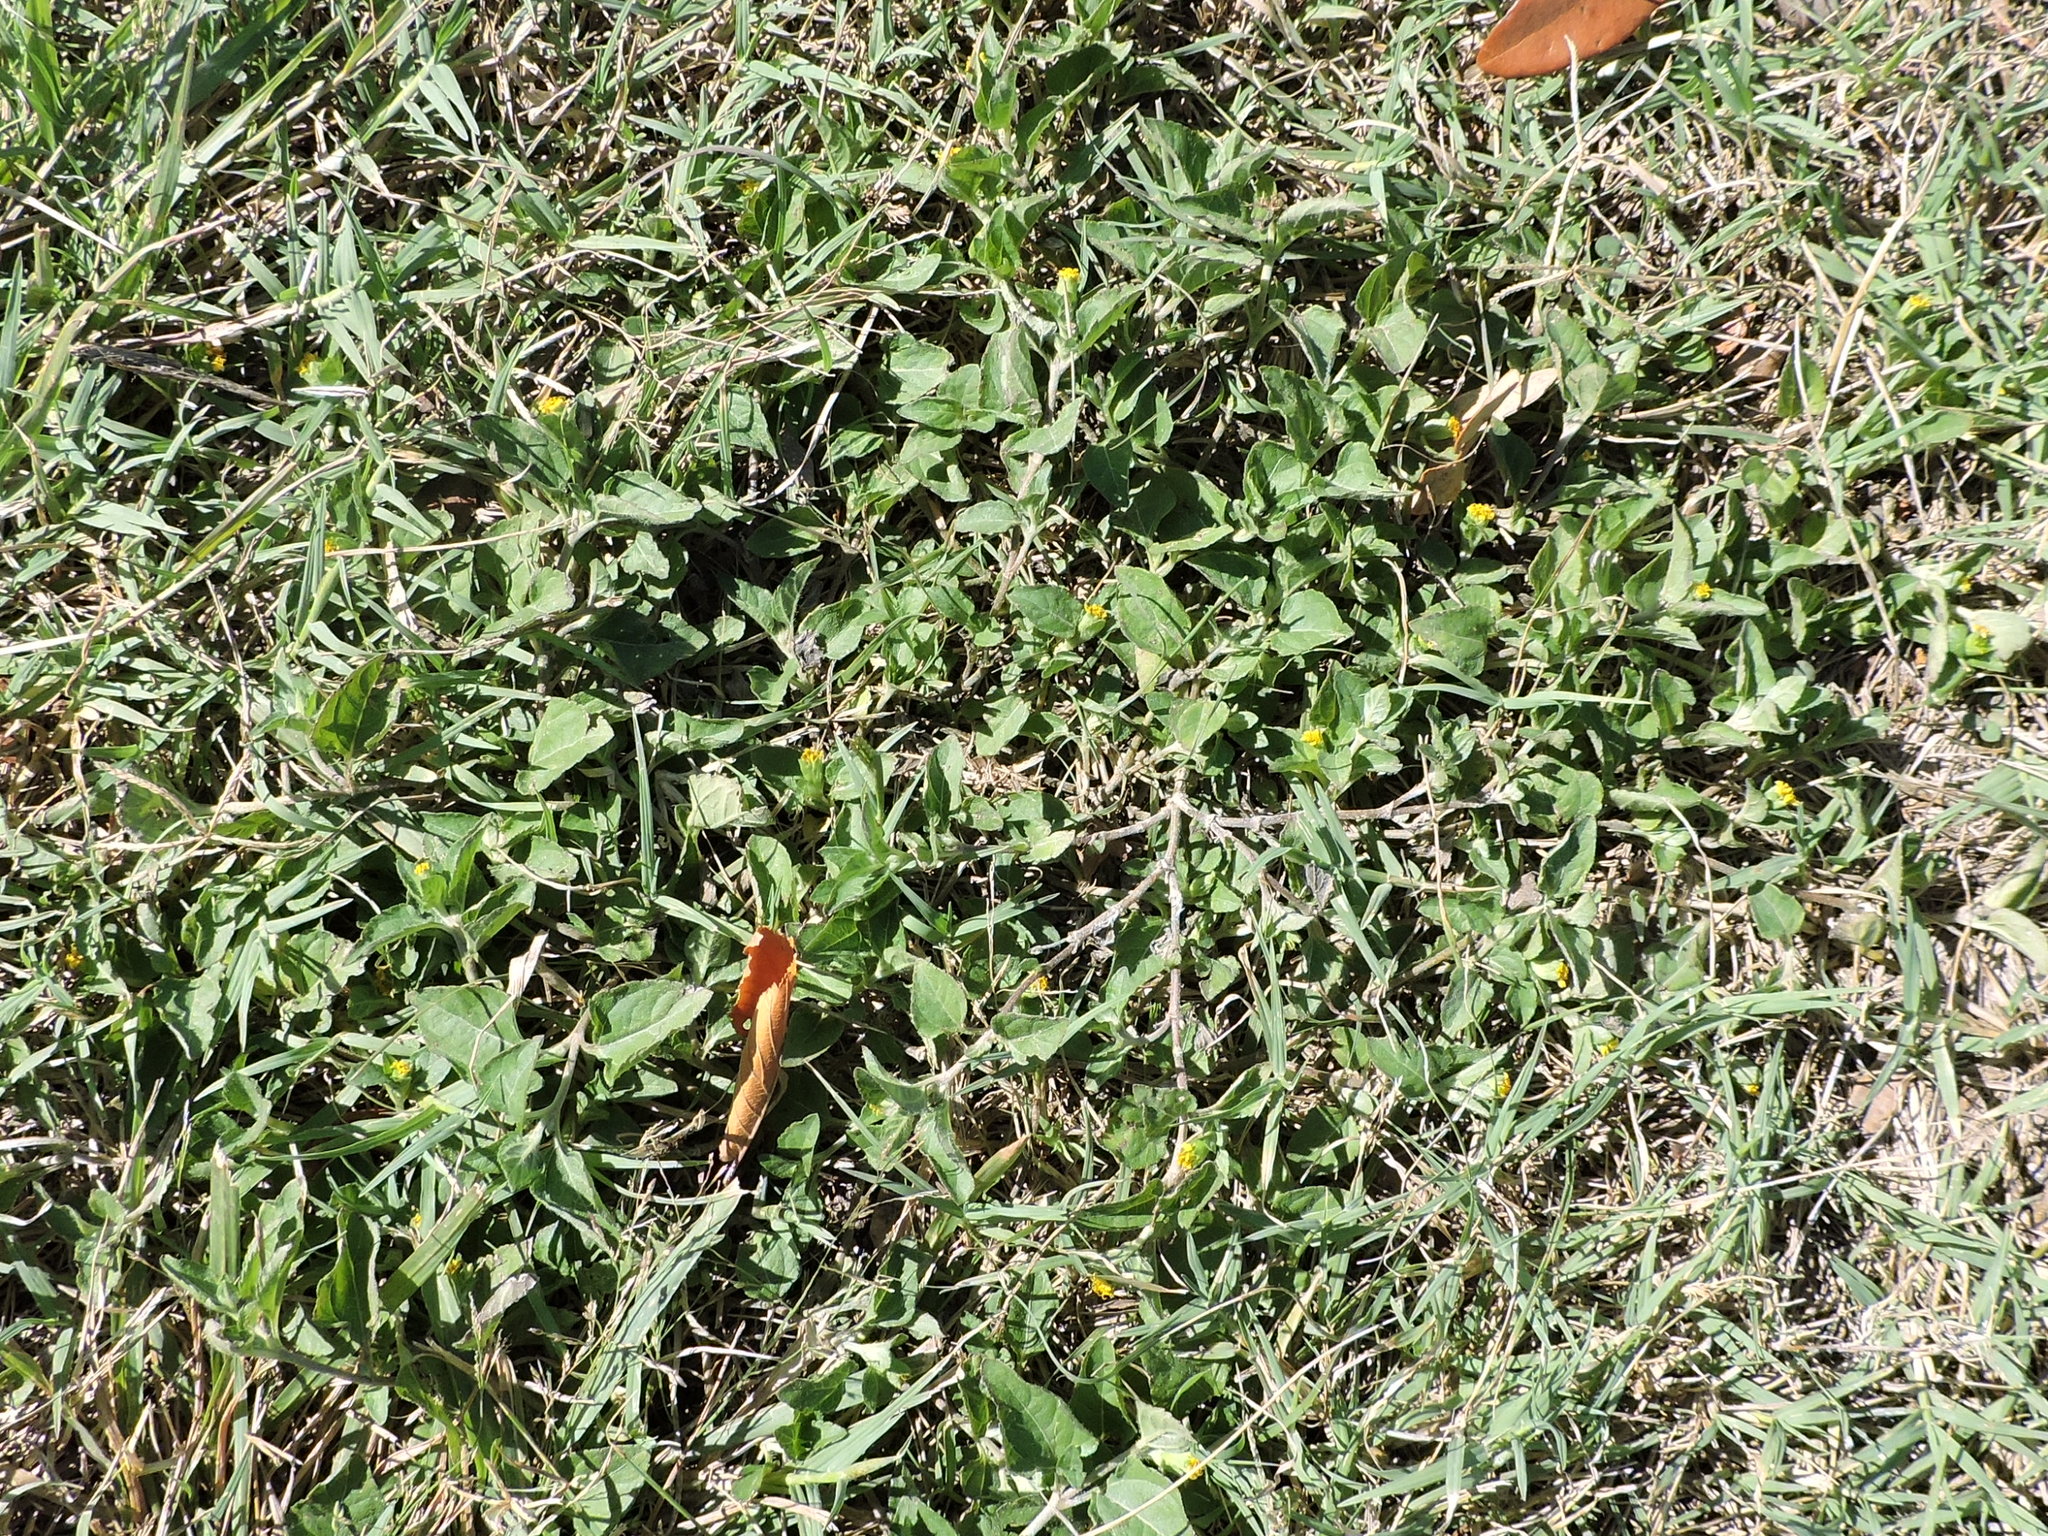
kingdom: Plantae
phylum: Tracheophyta
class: Magnoliopsida
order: Asterales
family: Asteraceae
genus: Calyptocarpus
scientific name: Calyptocarpus vialis
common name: Straggler daisy
